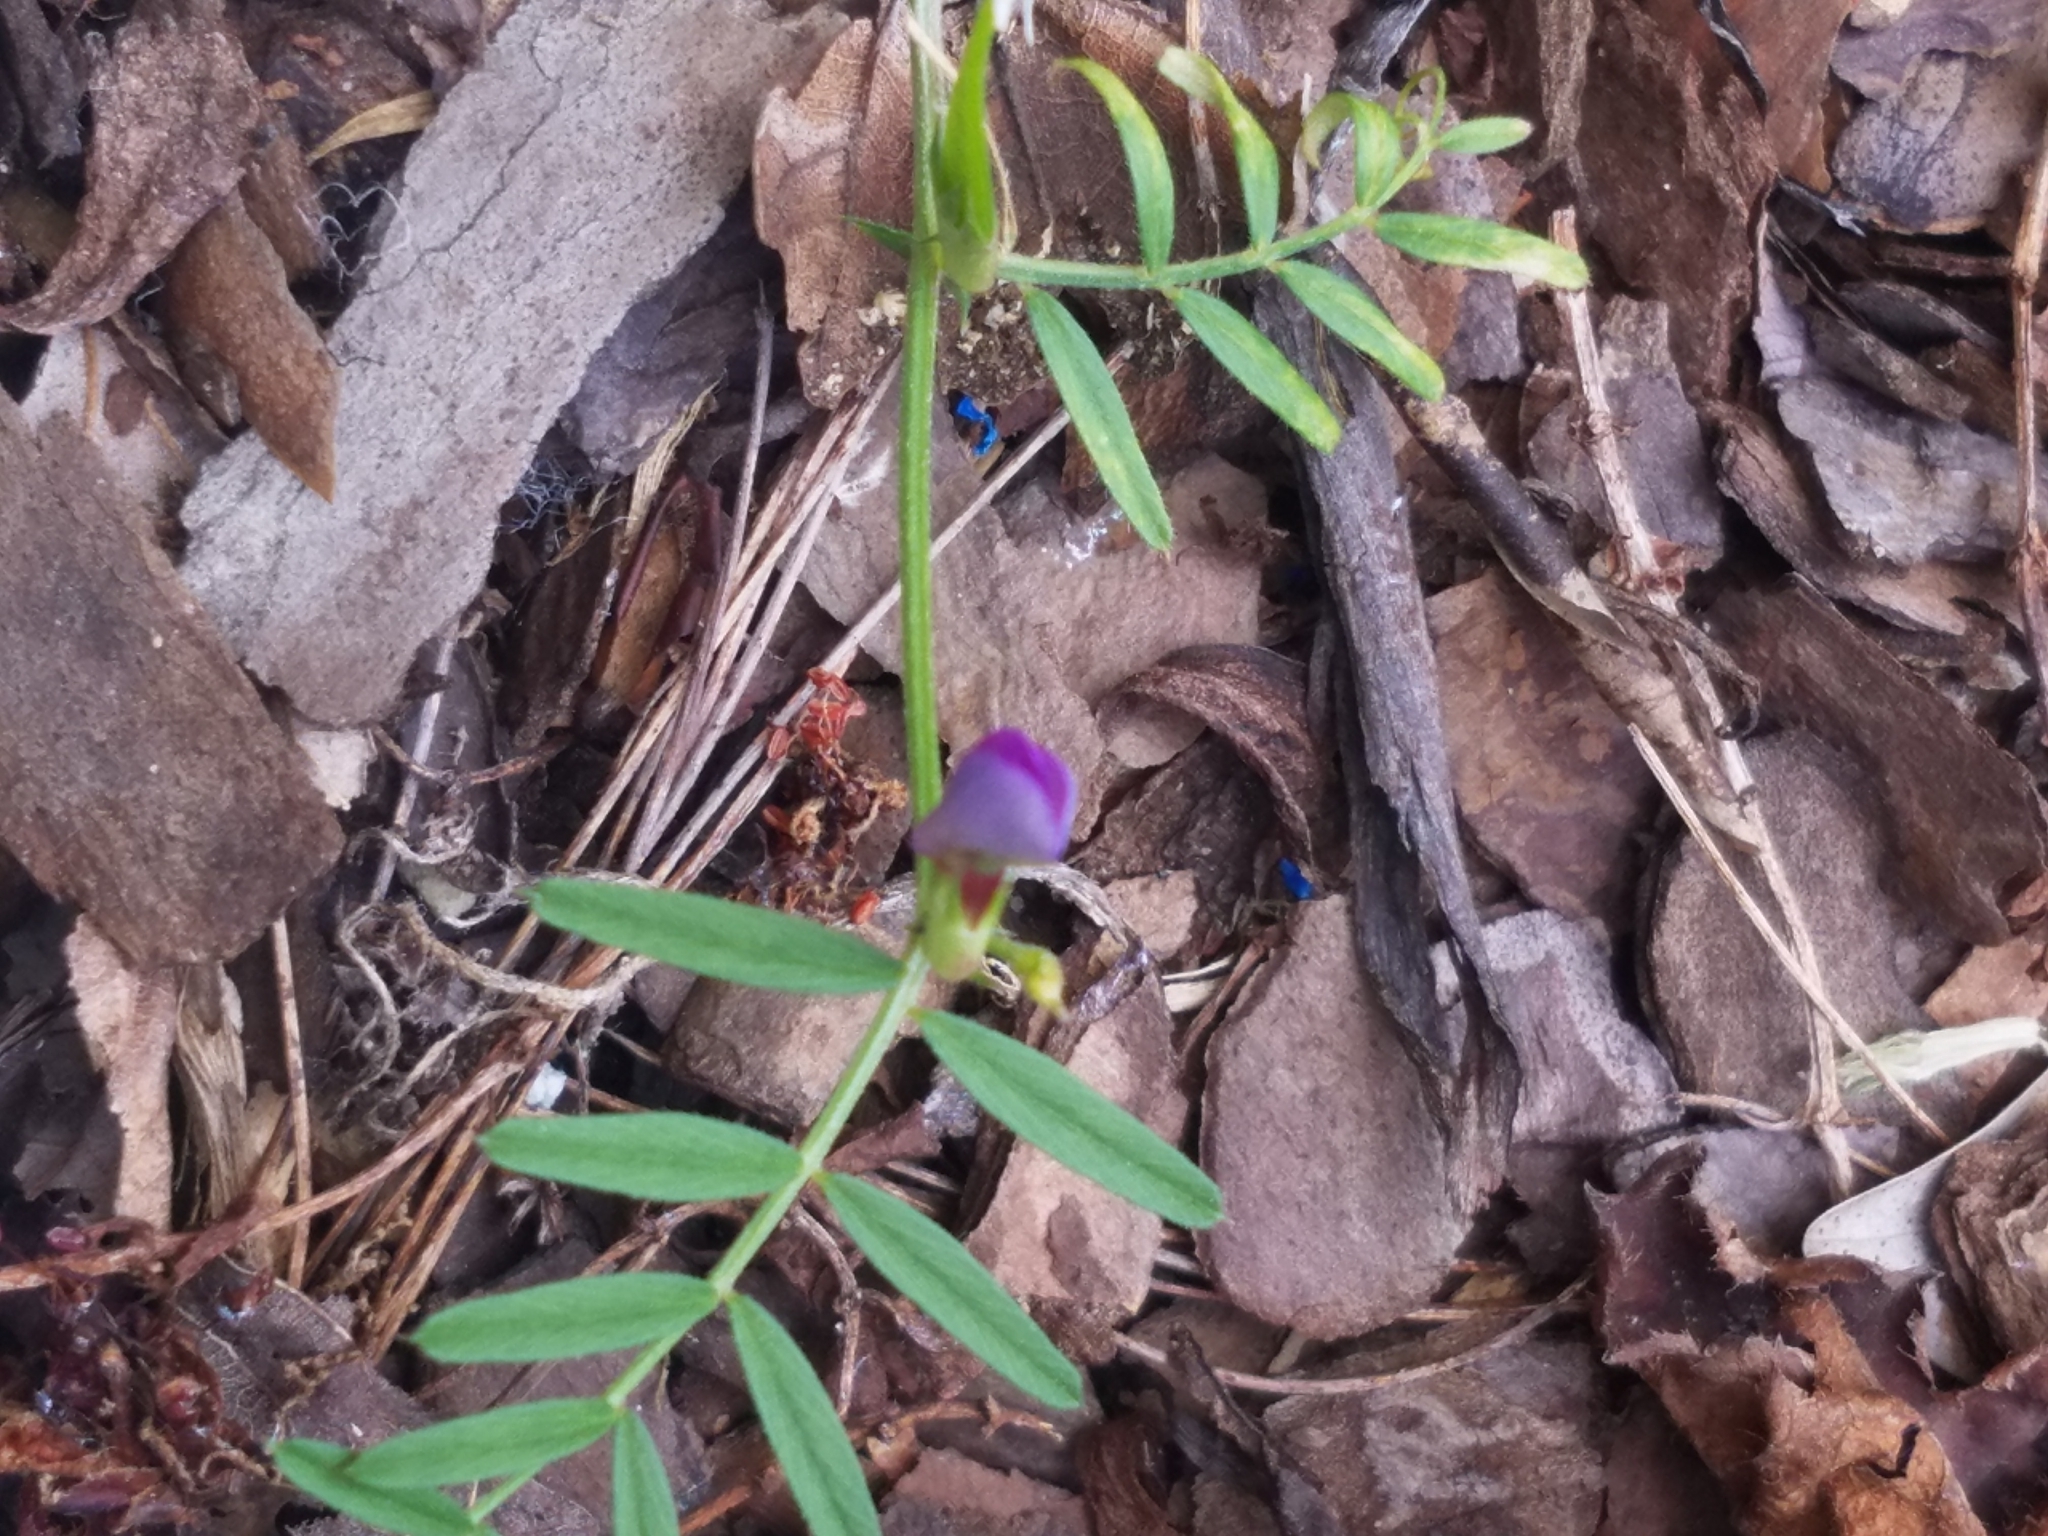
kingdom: Plantae
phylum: Tracheophyta
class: Magnoliopsida
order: Fabales
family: Fabaceae
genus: Vicia
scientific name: Vicia sativa
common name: Garden vetch
